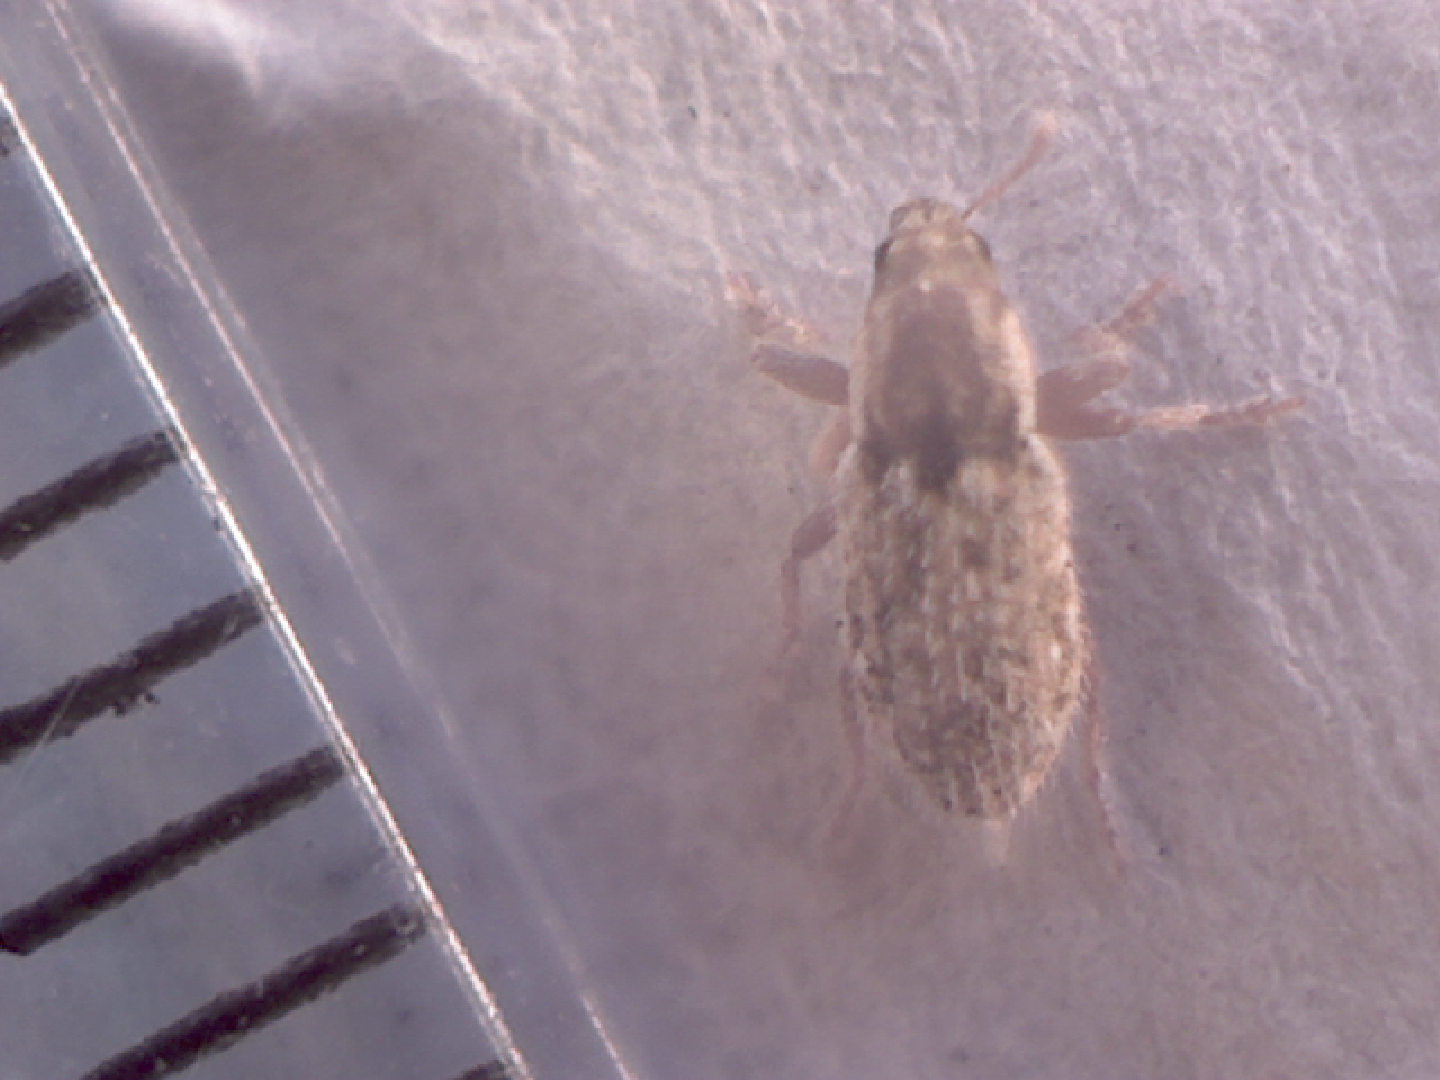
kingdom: Animalia
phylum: Arthropoda
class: Insecta
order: Coleoptera
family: Curculionidae
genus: Microlarinus
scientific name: Microlarinus lareynii
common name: Weevil
